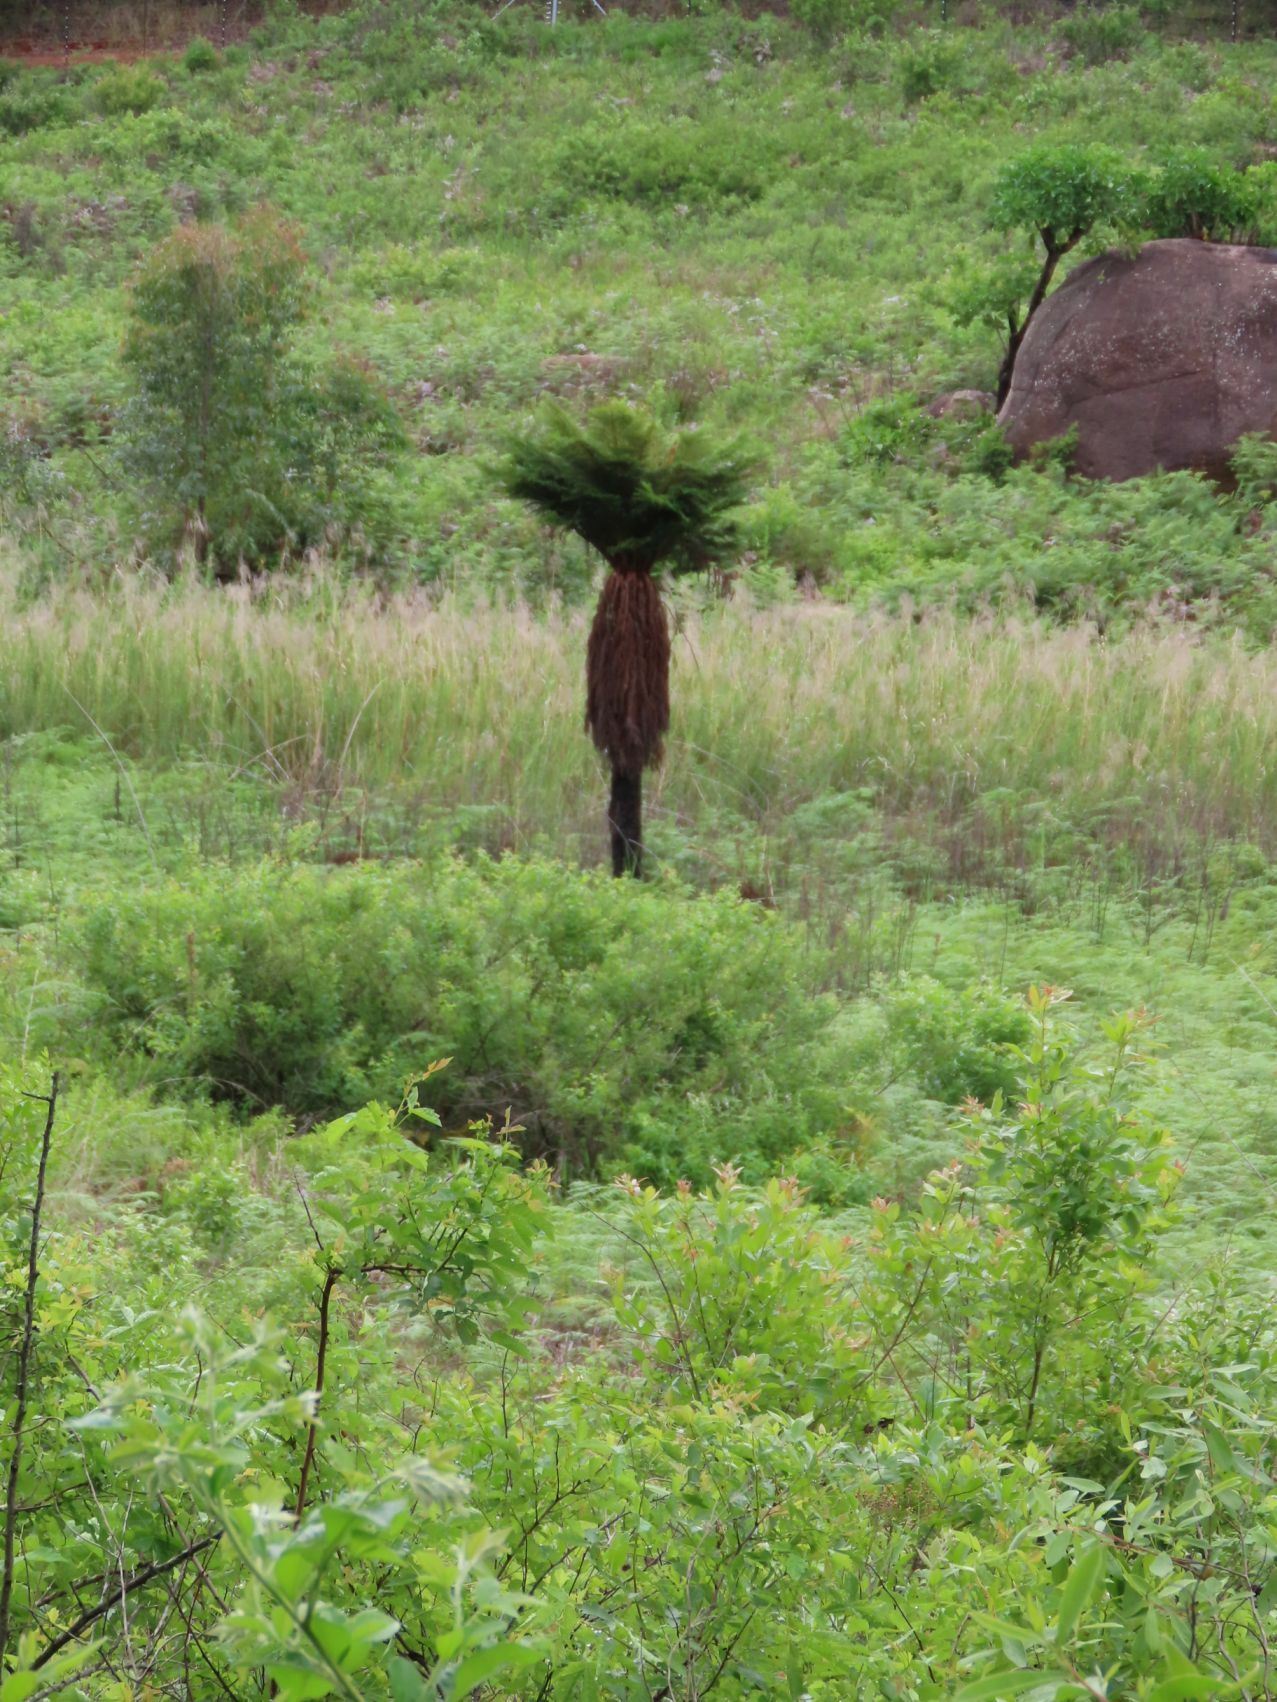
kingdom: Plantae
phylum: Tracheophyta
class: Polypodiopsida
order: Cyatheales
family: Cyatheaceae
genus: Alsophila
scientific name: Alsophila dregei
